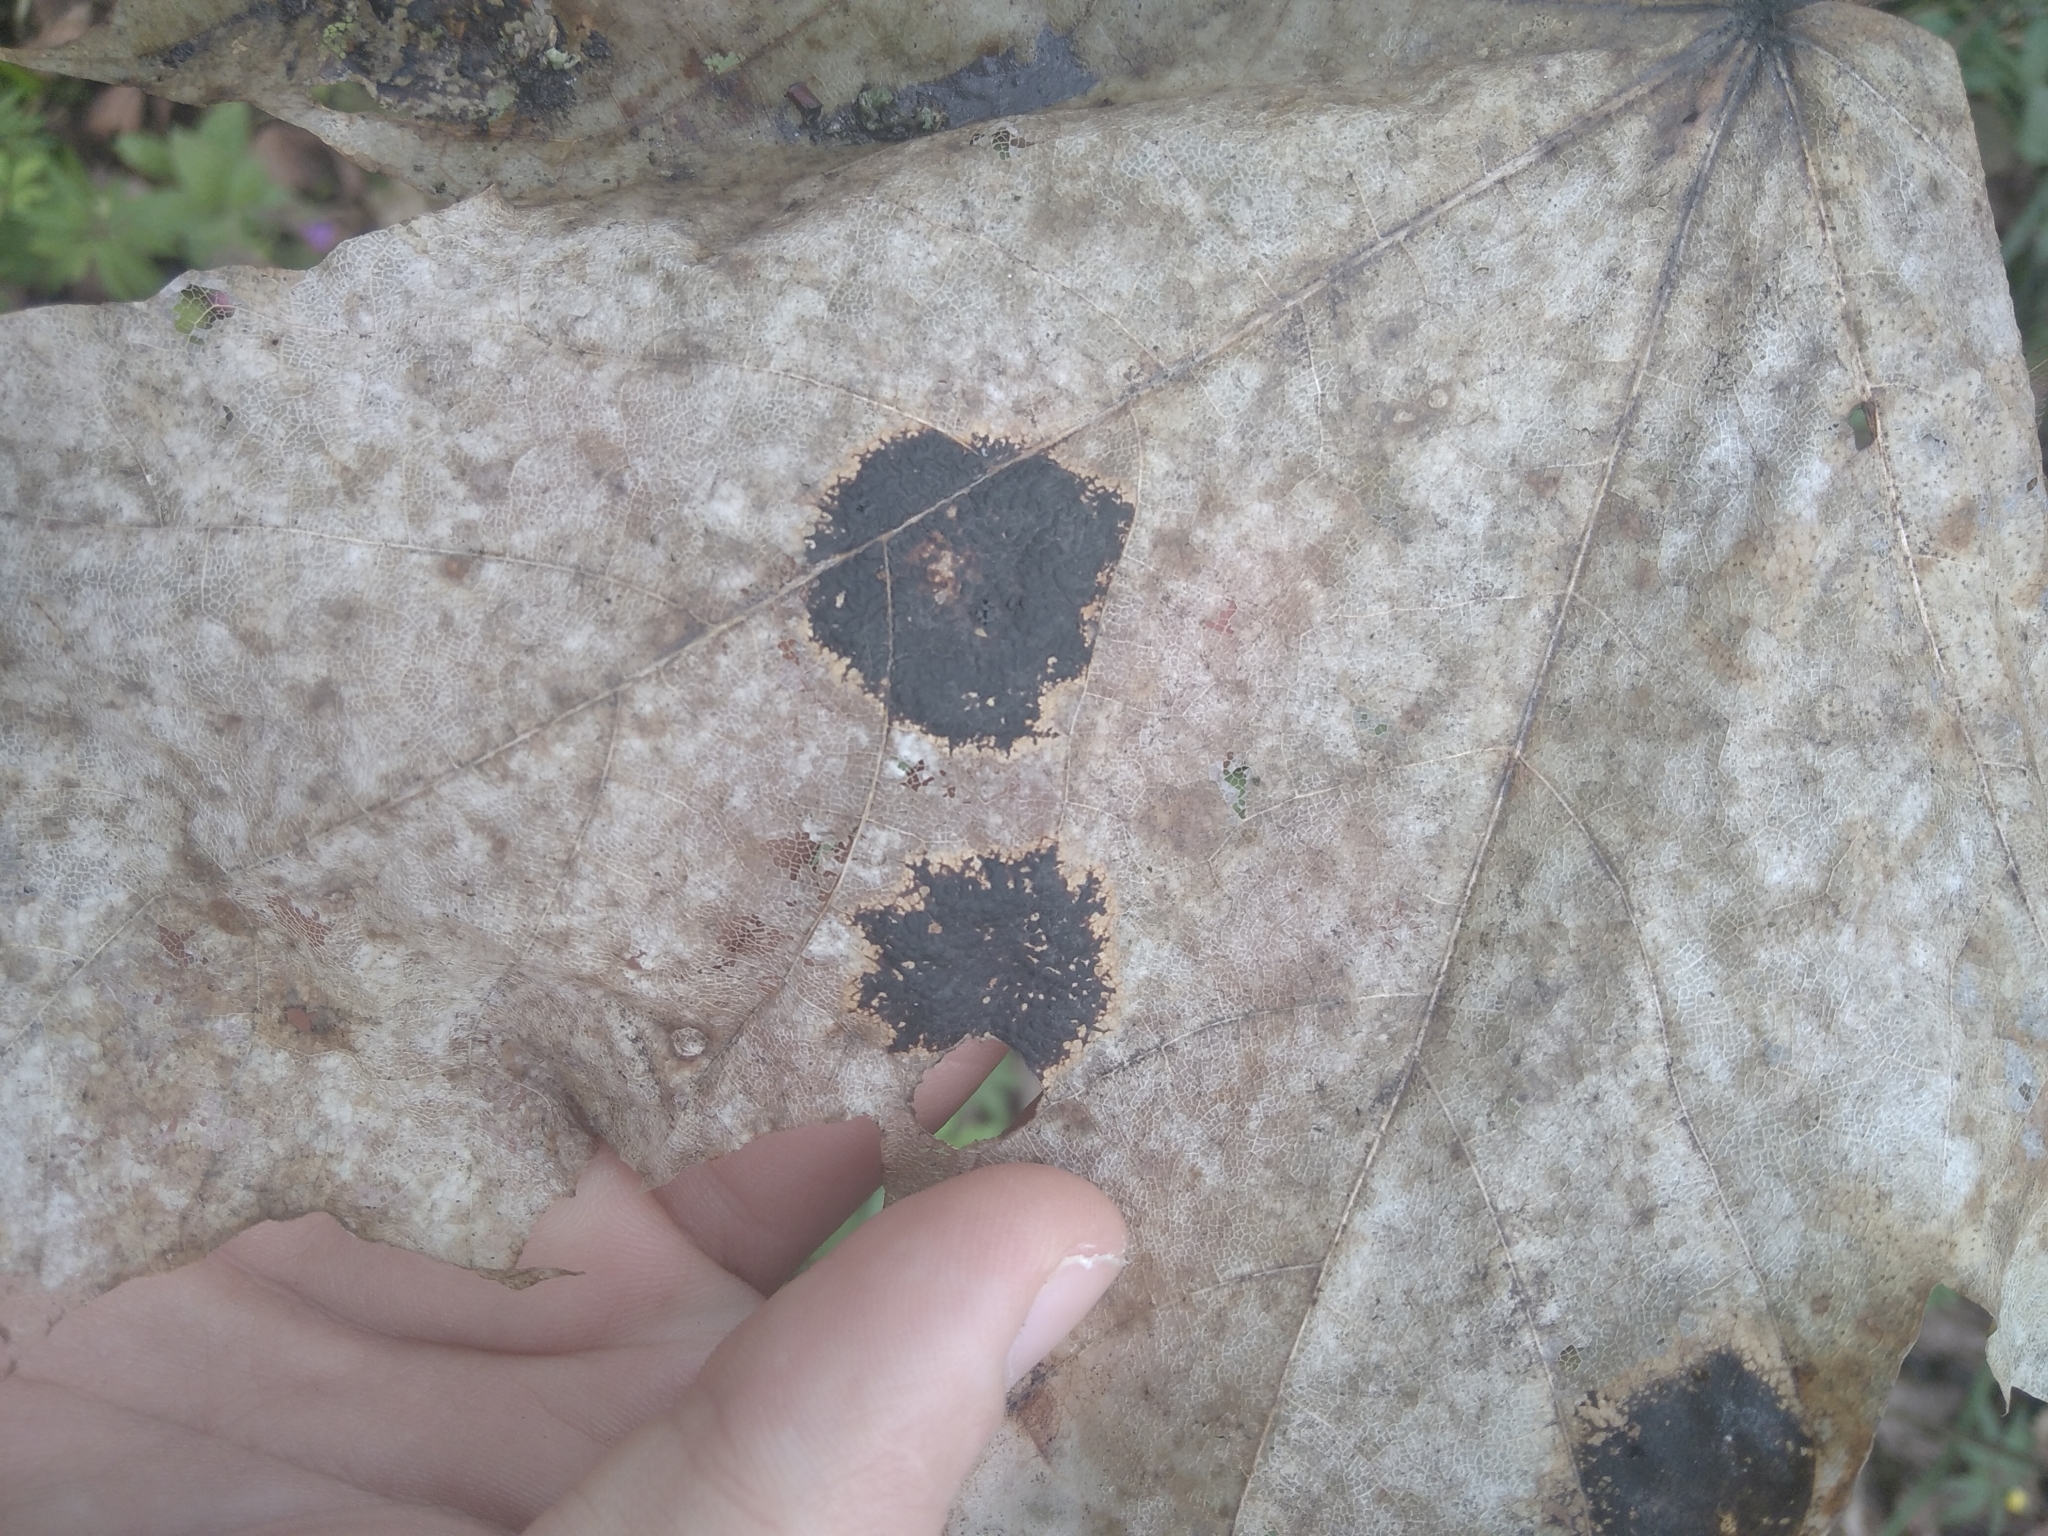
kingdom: Fungi
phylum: Ascomycota
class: Leotiomycetes
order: Rhytismatales
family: Rhytismataceae
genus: Rhytisma
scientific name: Rhytisma acerinum
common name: European tar spot
